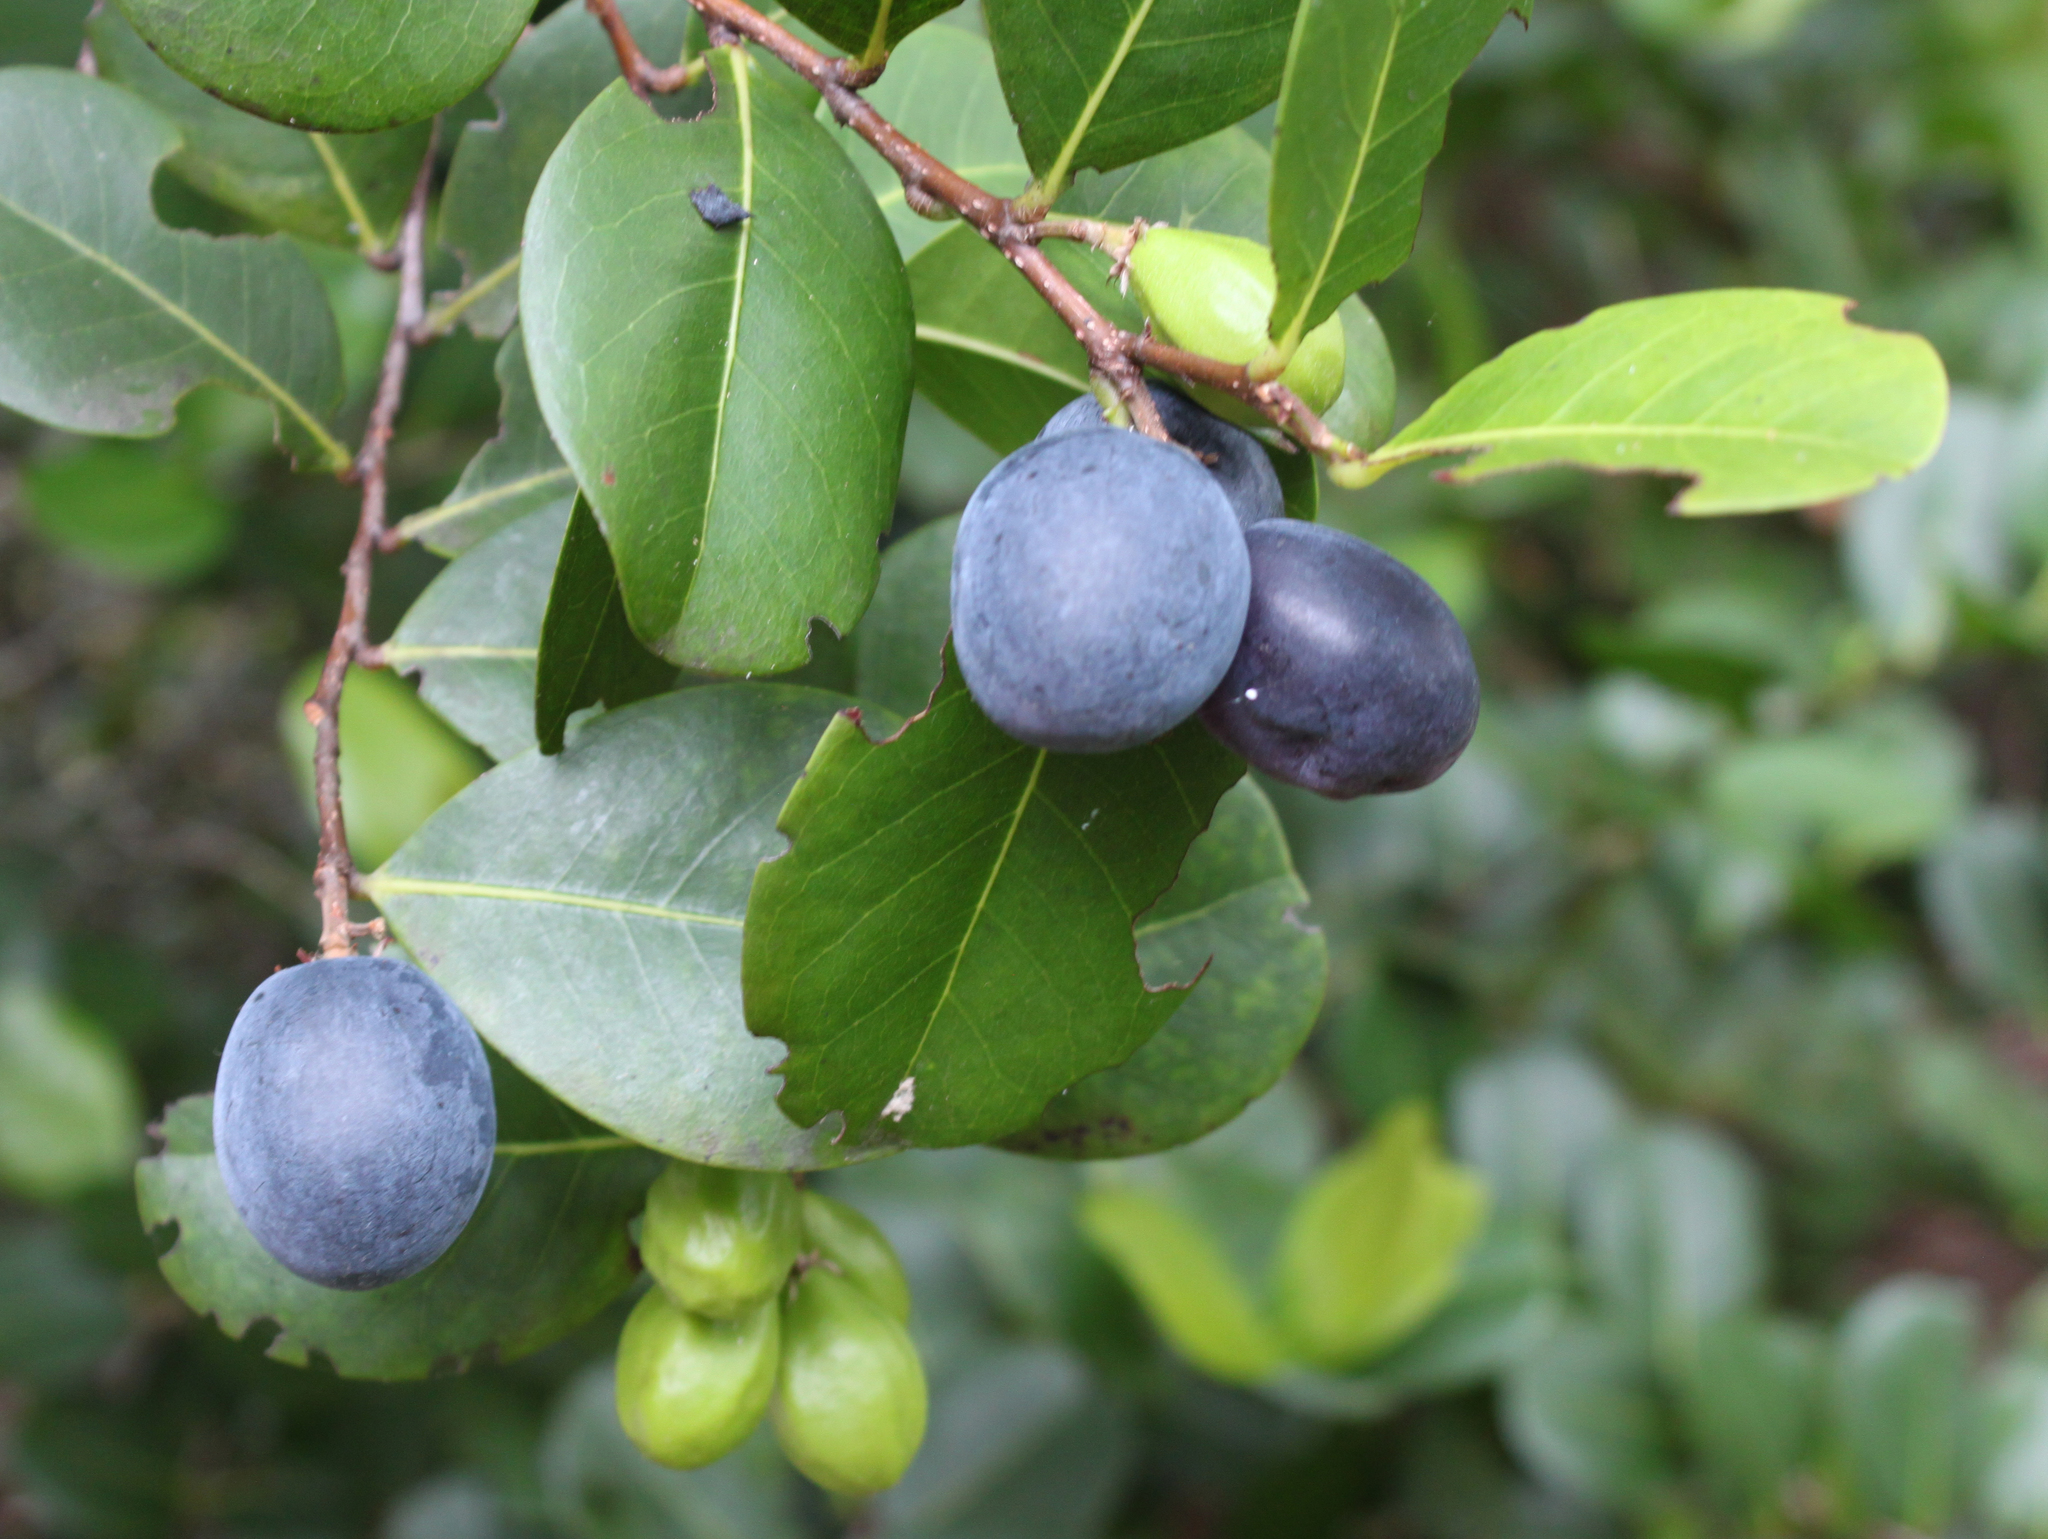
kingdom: Plantae
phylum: Tracheophyta
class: Magnoliopsida
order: Malpighiales
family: Chrysobalanaceae
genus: Chrysobalanus
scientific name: Chrysobalanus icaco
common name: Coco plum
